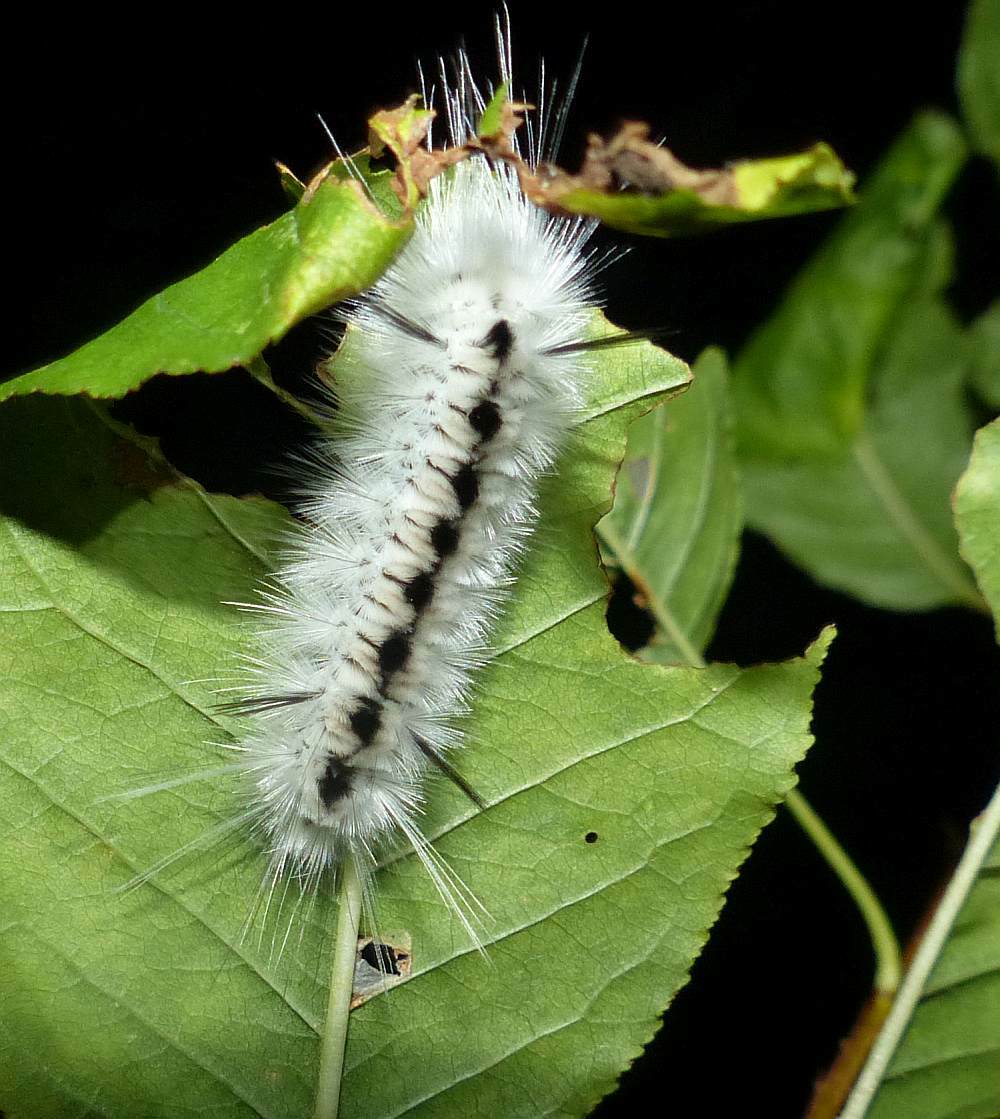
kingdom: Animalia
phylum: Arthropoda
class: Insecta
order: Lepidoptera
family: Erebidae
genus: Lophocampa
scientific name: Lophocampa caryae
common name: Hickory tussock moth
